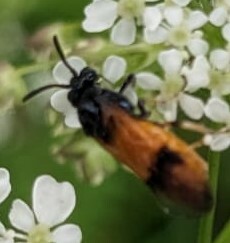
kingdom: Animalia
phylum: Arthropoda
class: Insecta
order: Hymenoptera
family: Argidae
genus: Arge
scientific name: Arge cyanocrocea
